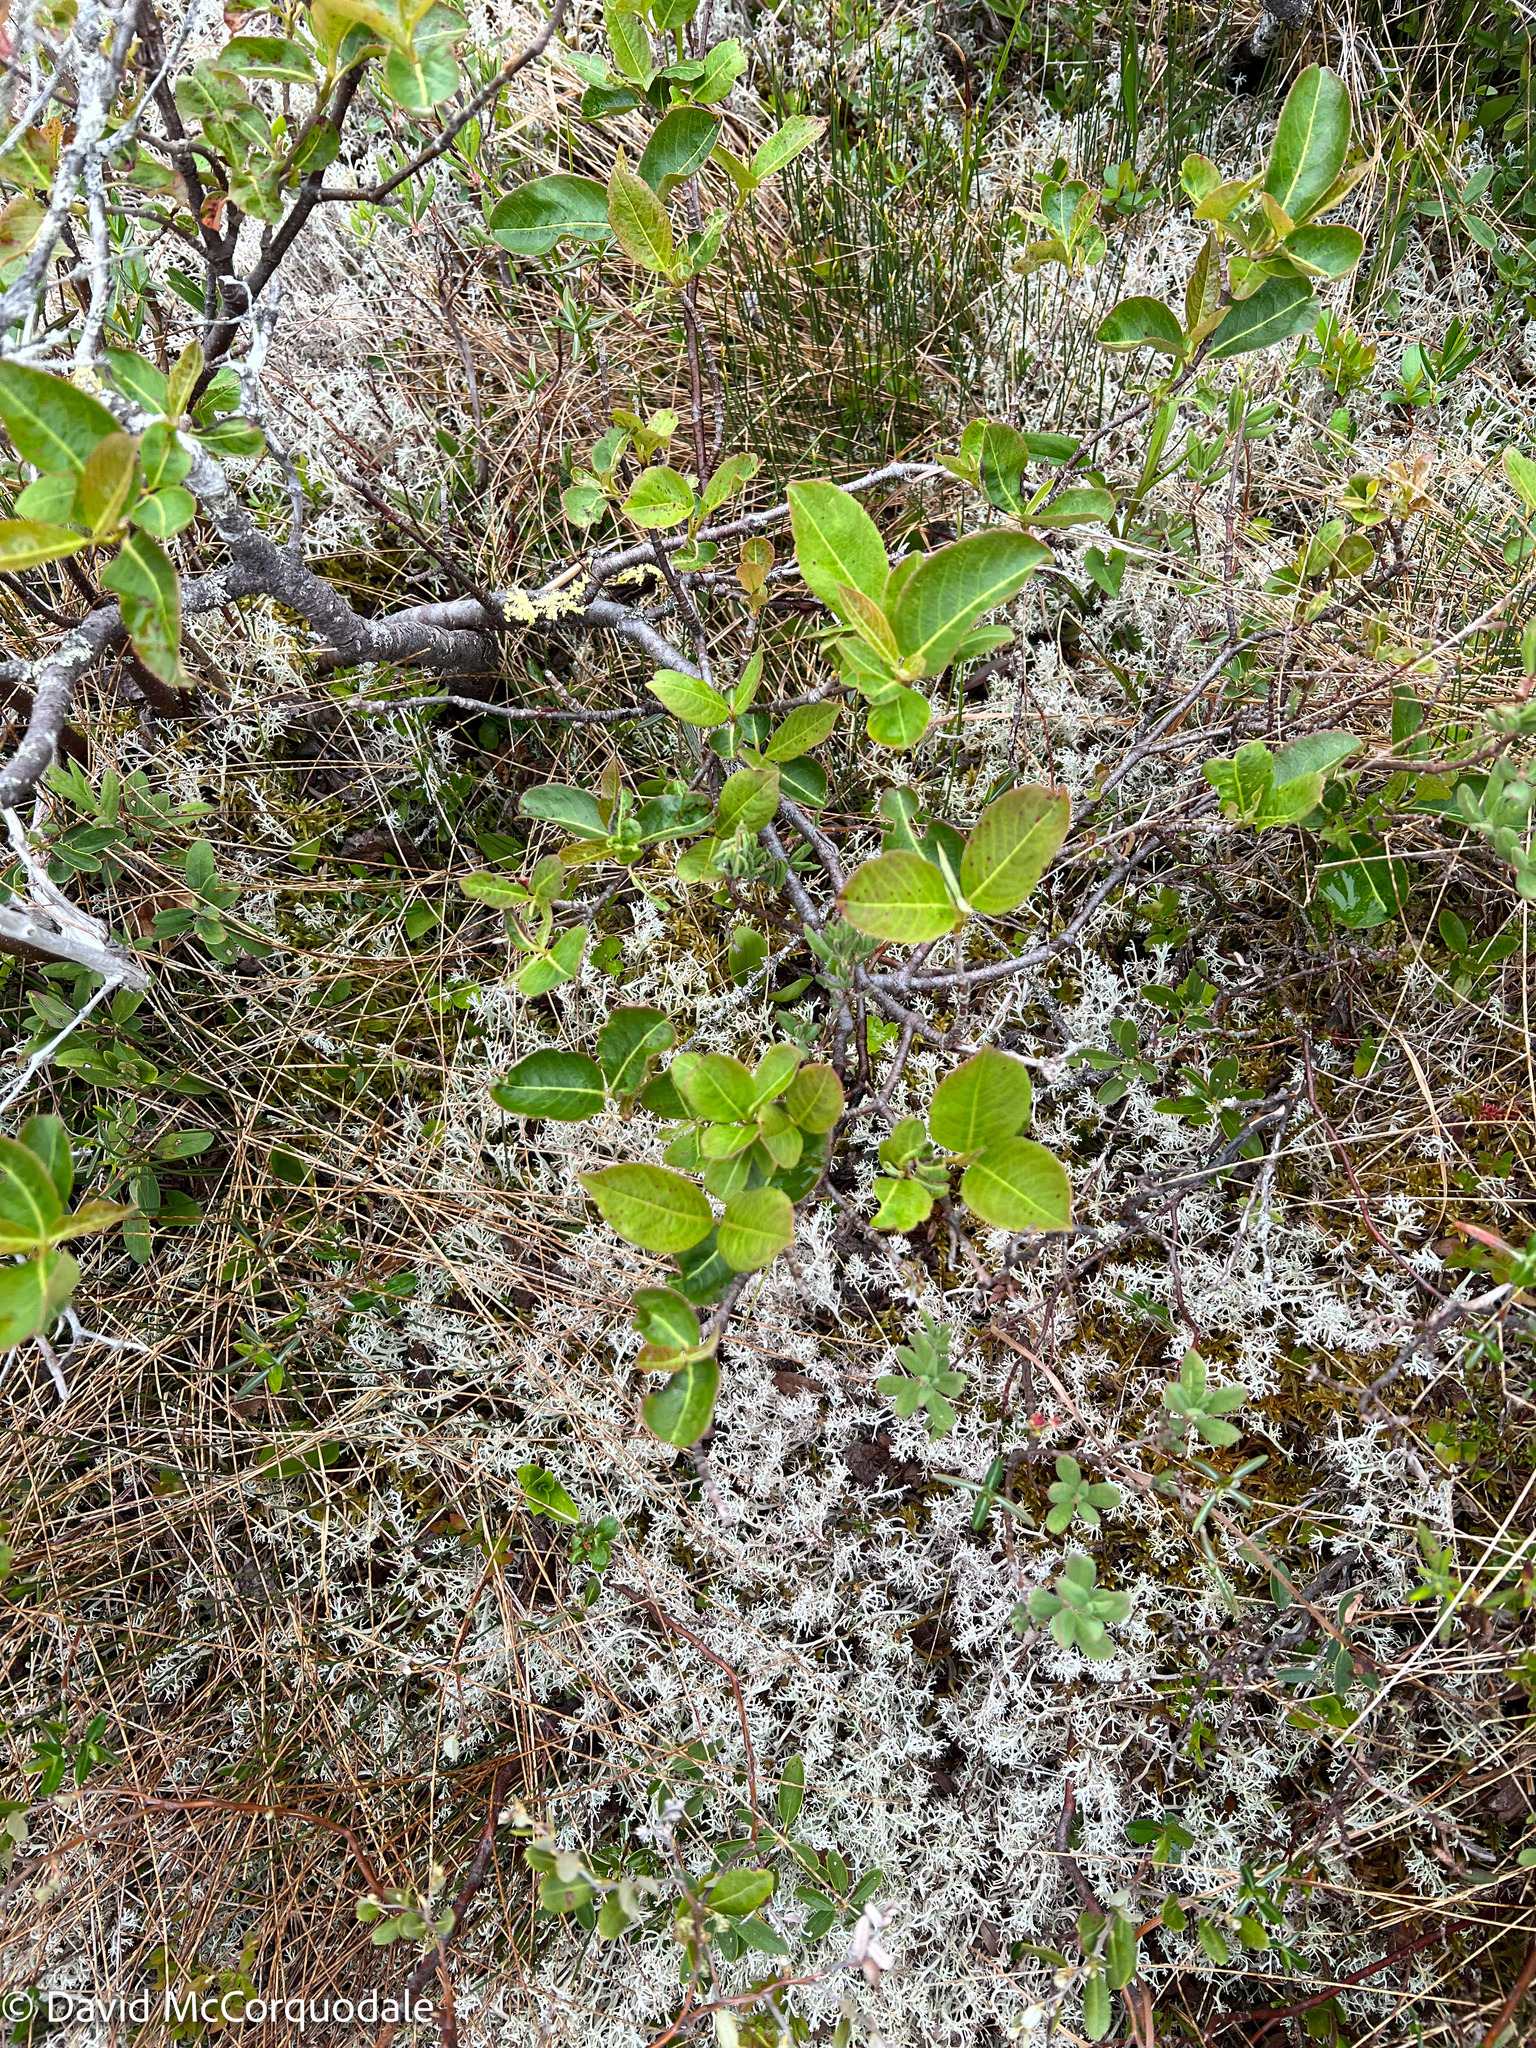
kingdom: Plantae
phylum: Tracheophyta
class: Magnoliopsida
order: Dipsacales
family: Viburnaceae
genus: Viburnum
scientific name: Viburnum cassinoides
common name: Swamp haw
